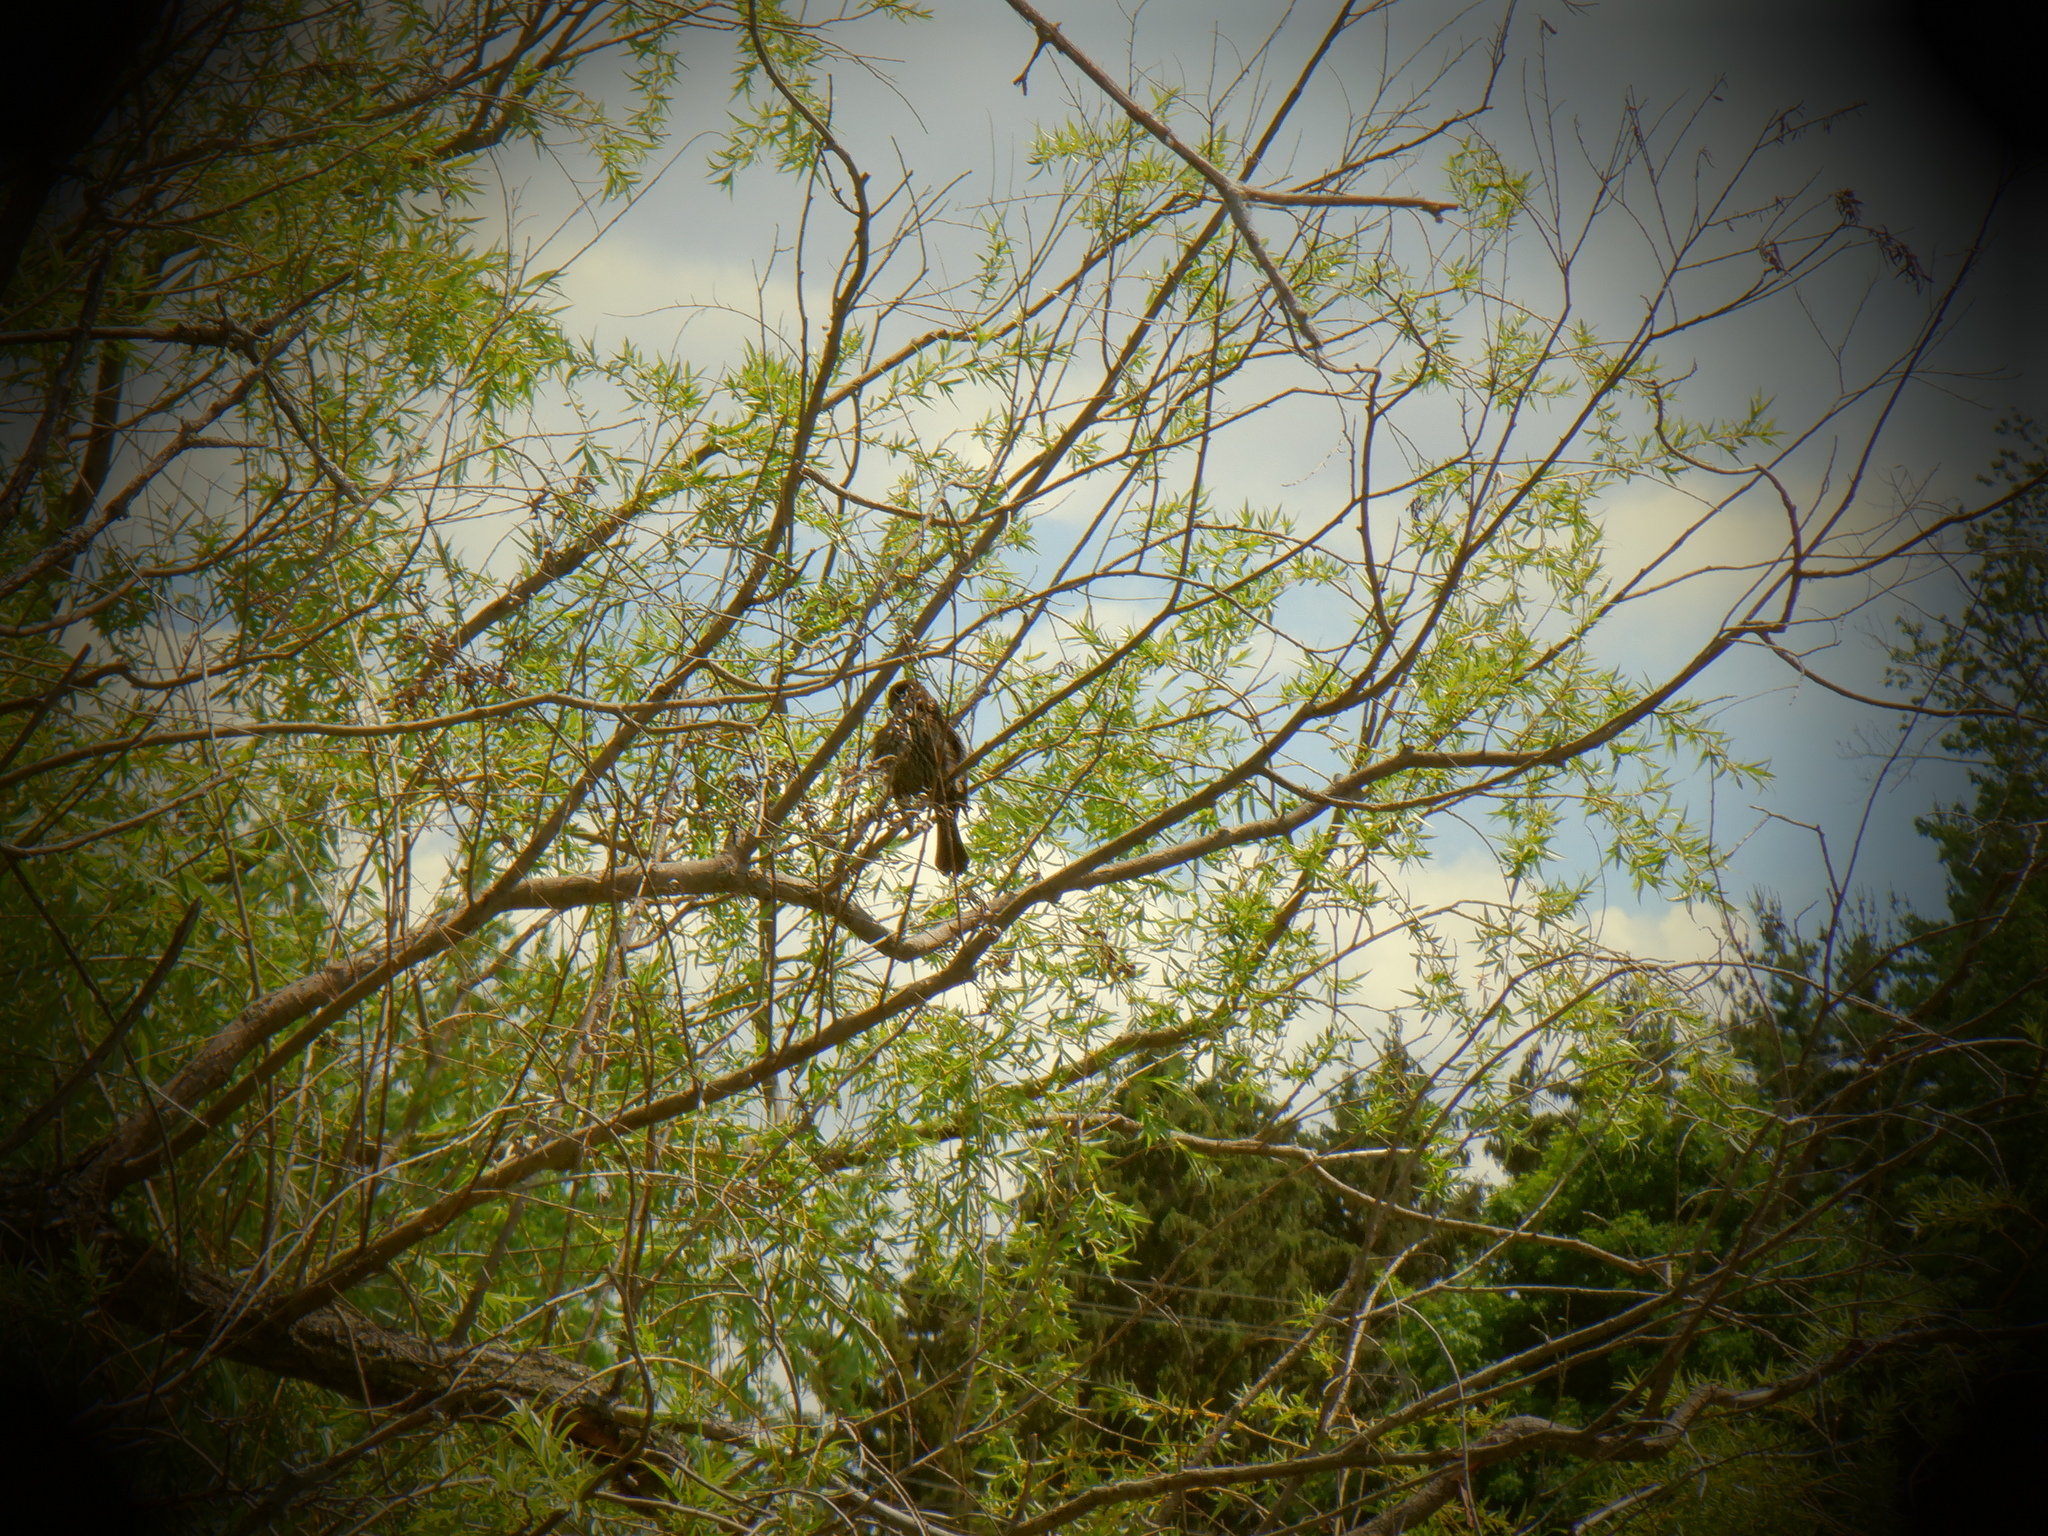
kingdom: Animalia
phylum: Chordata
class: Aves
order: Passeriformes
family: Icteridae
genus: Agelaius
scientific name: Agelaius phoeniceus
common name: Red-winged blackbird
